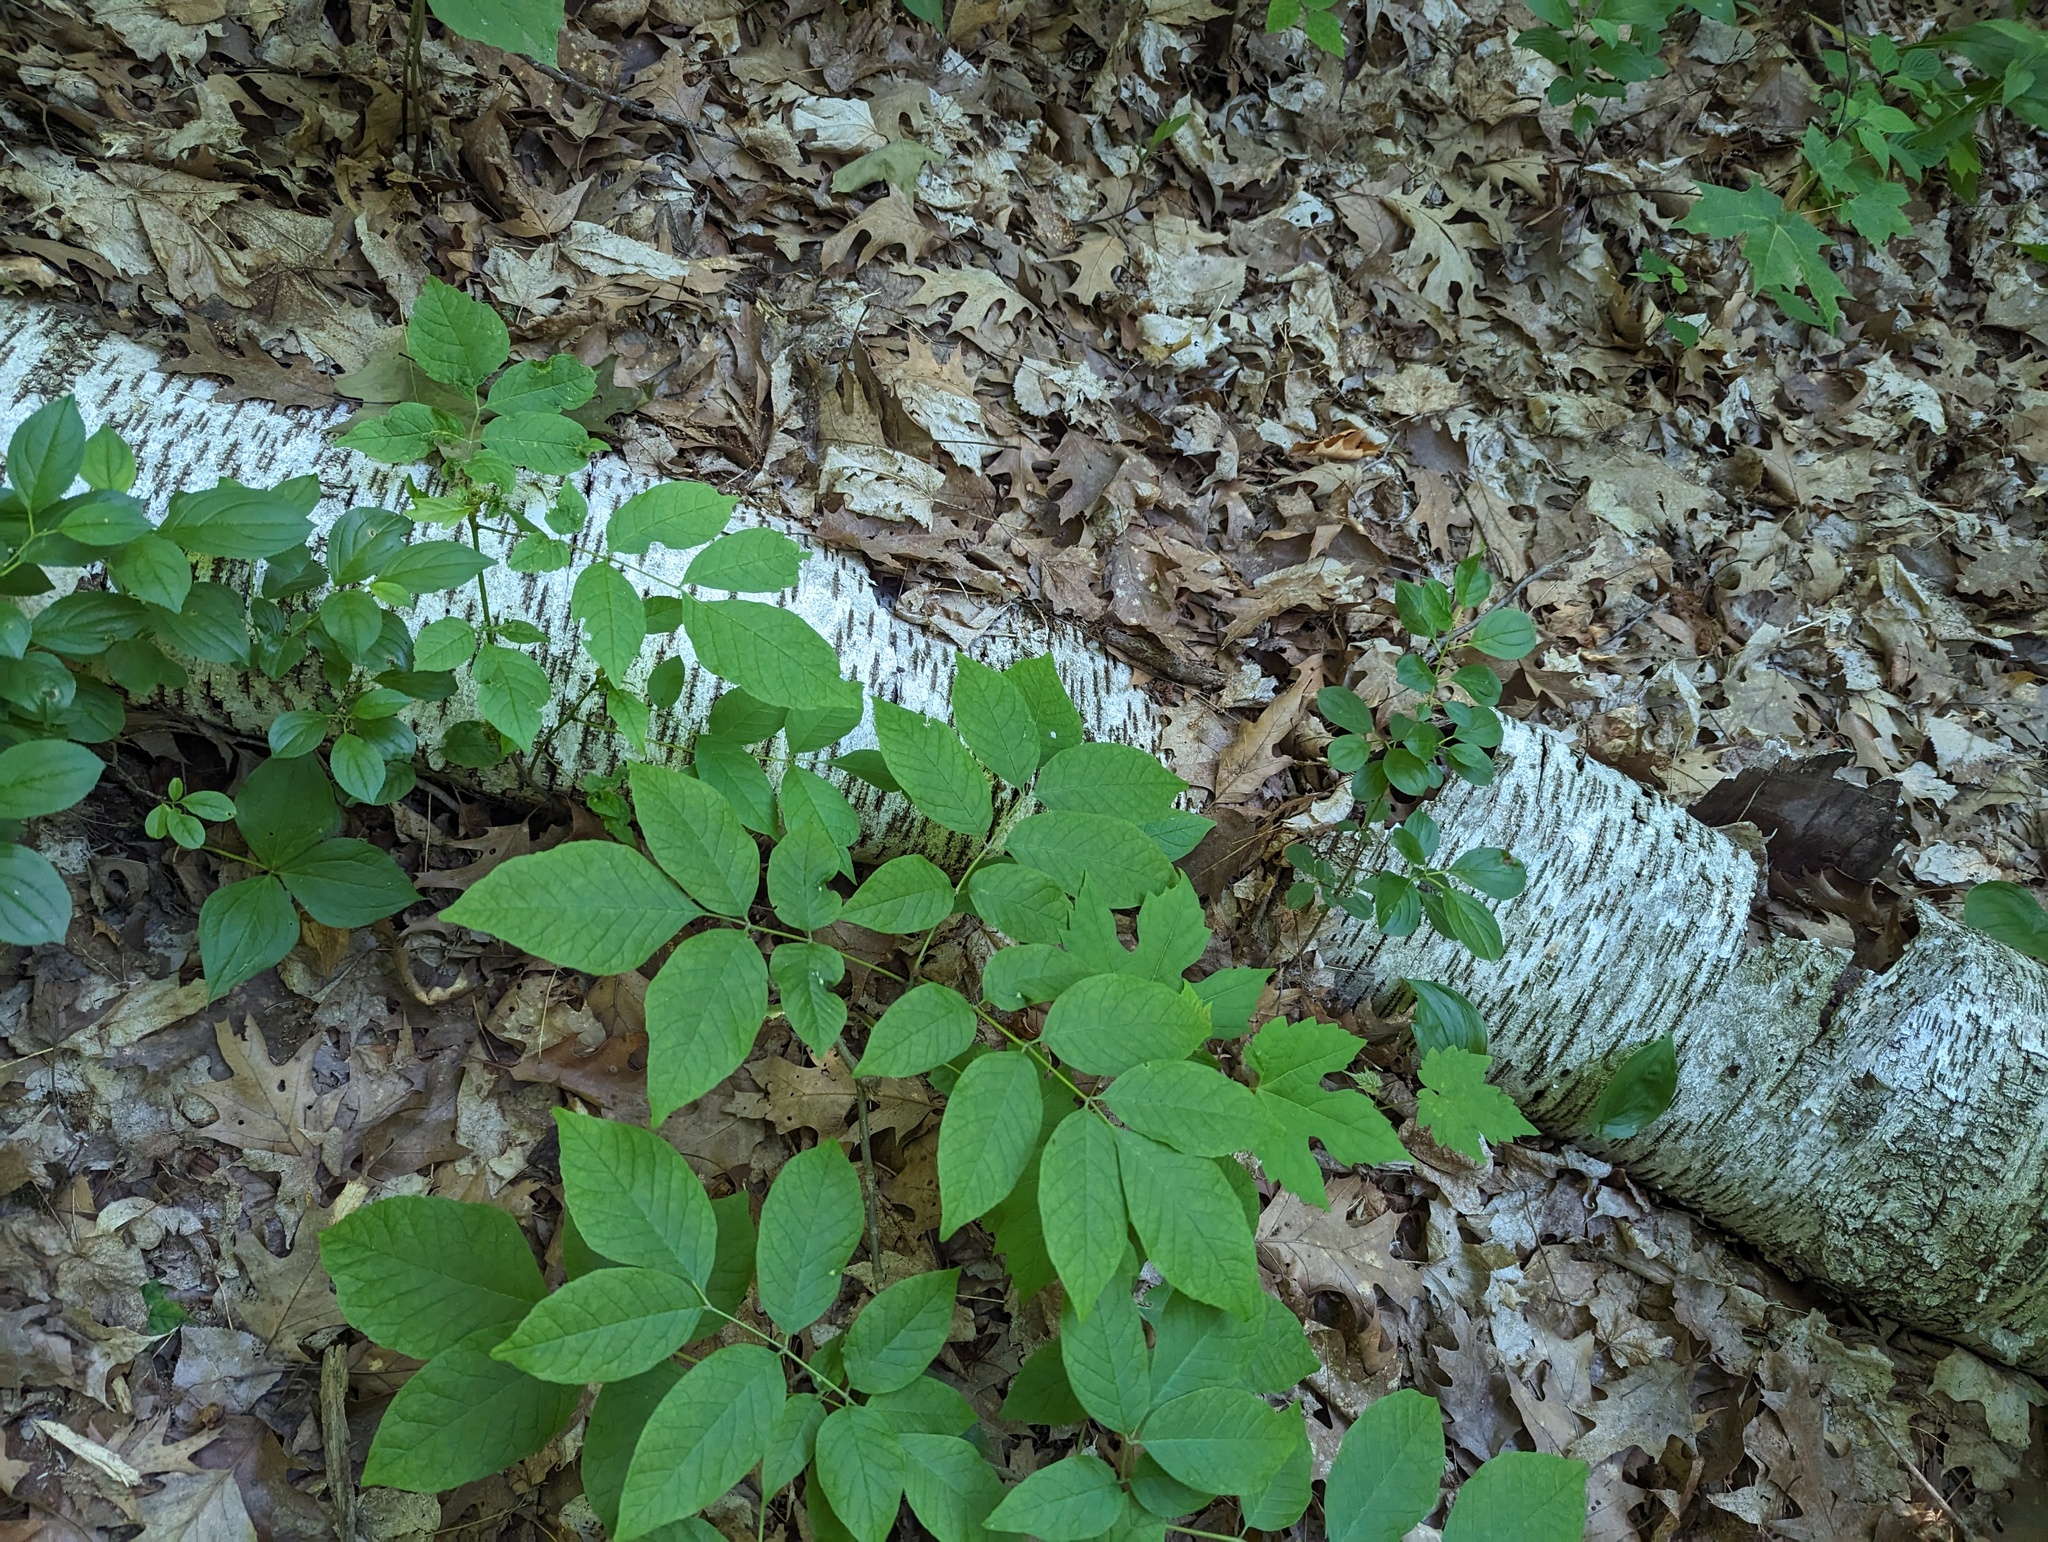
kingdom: Plantae
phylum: Tracheophyta
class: Magnoliopsida
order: Fagales
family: Betulaceae
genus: Betula
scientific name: Betula papyrifera
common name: Paper birch
